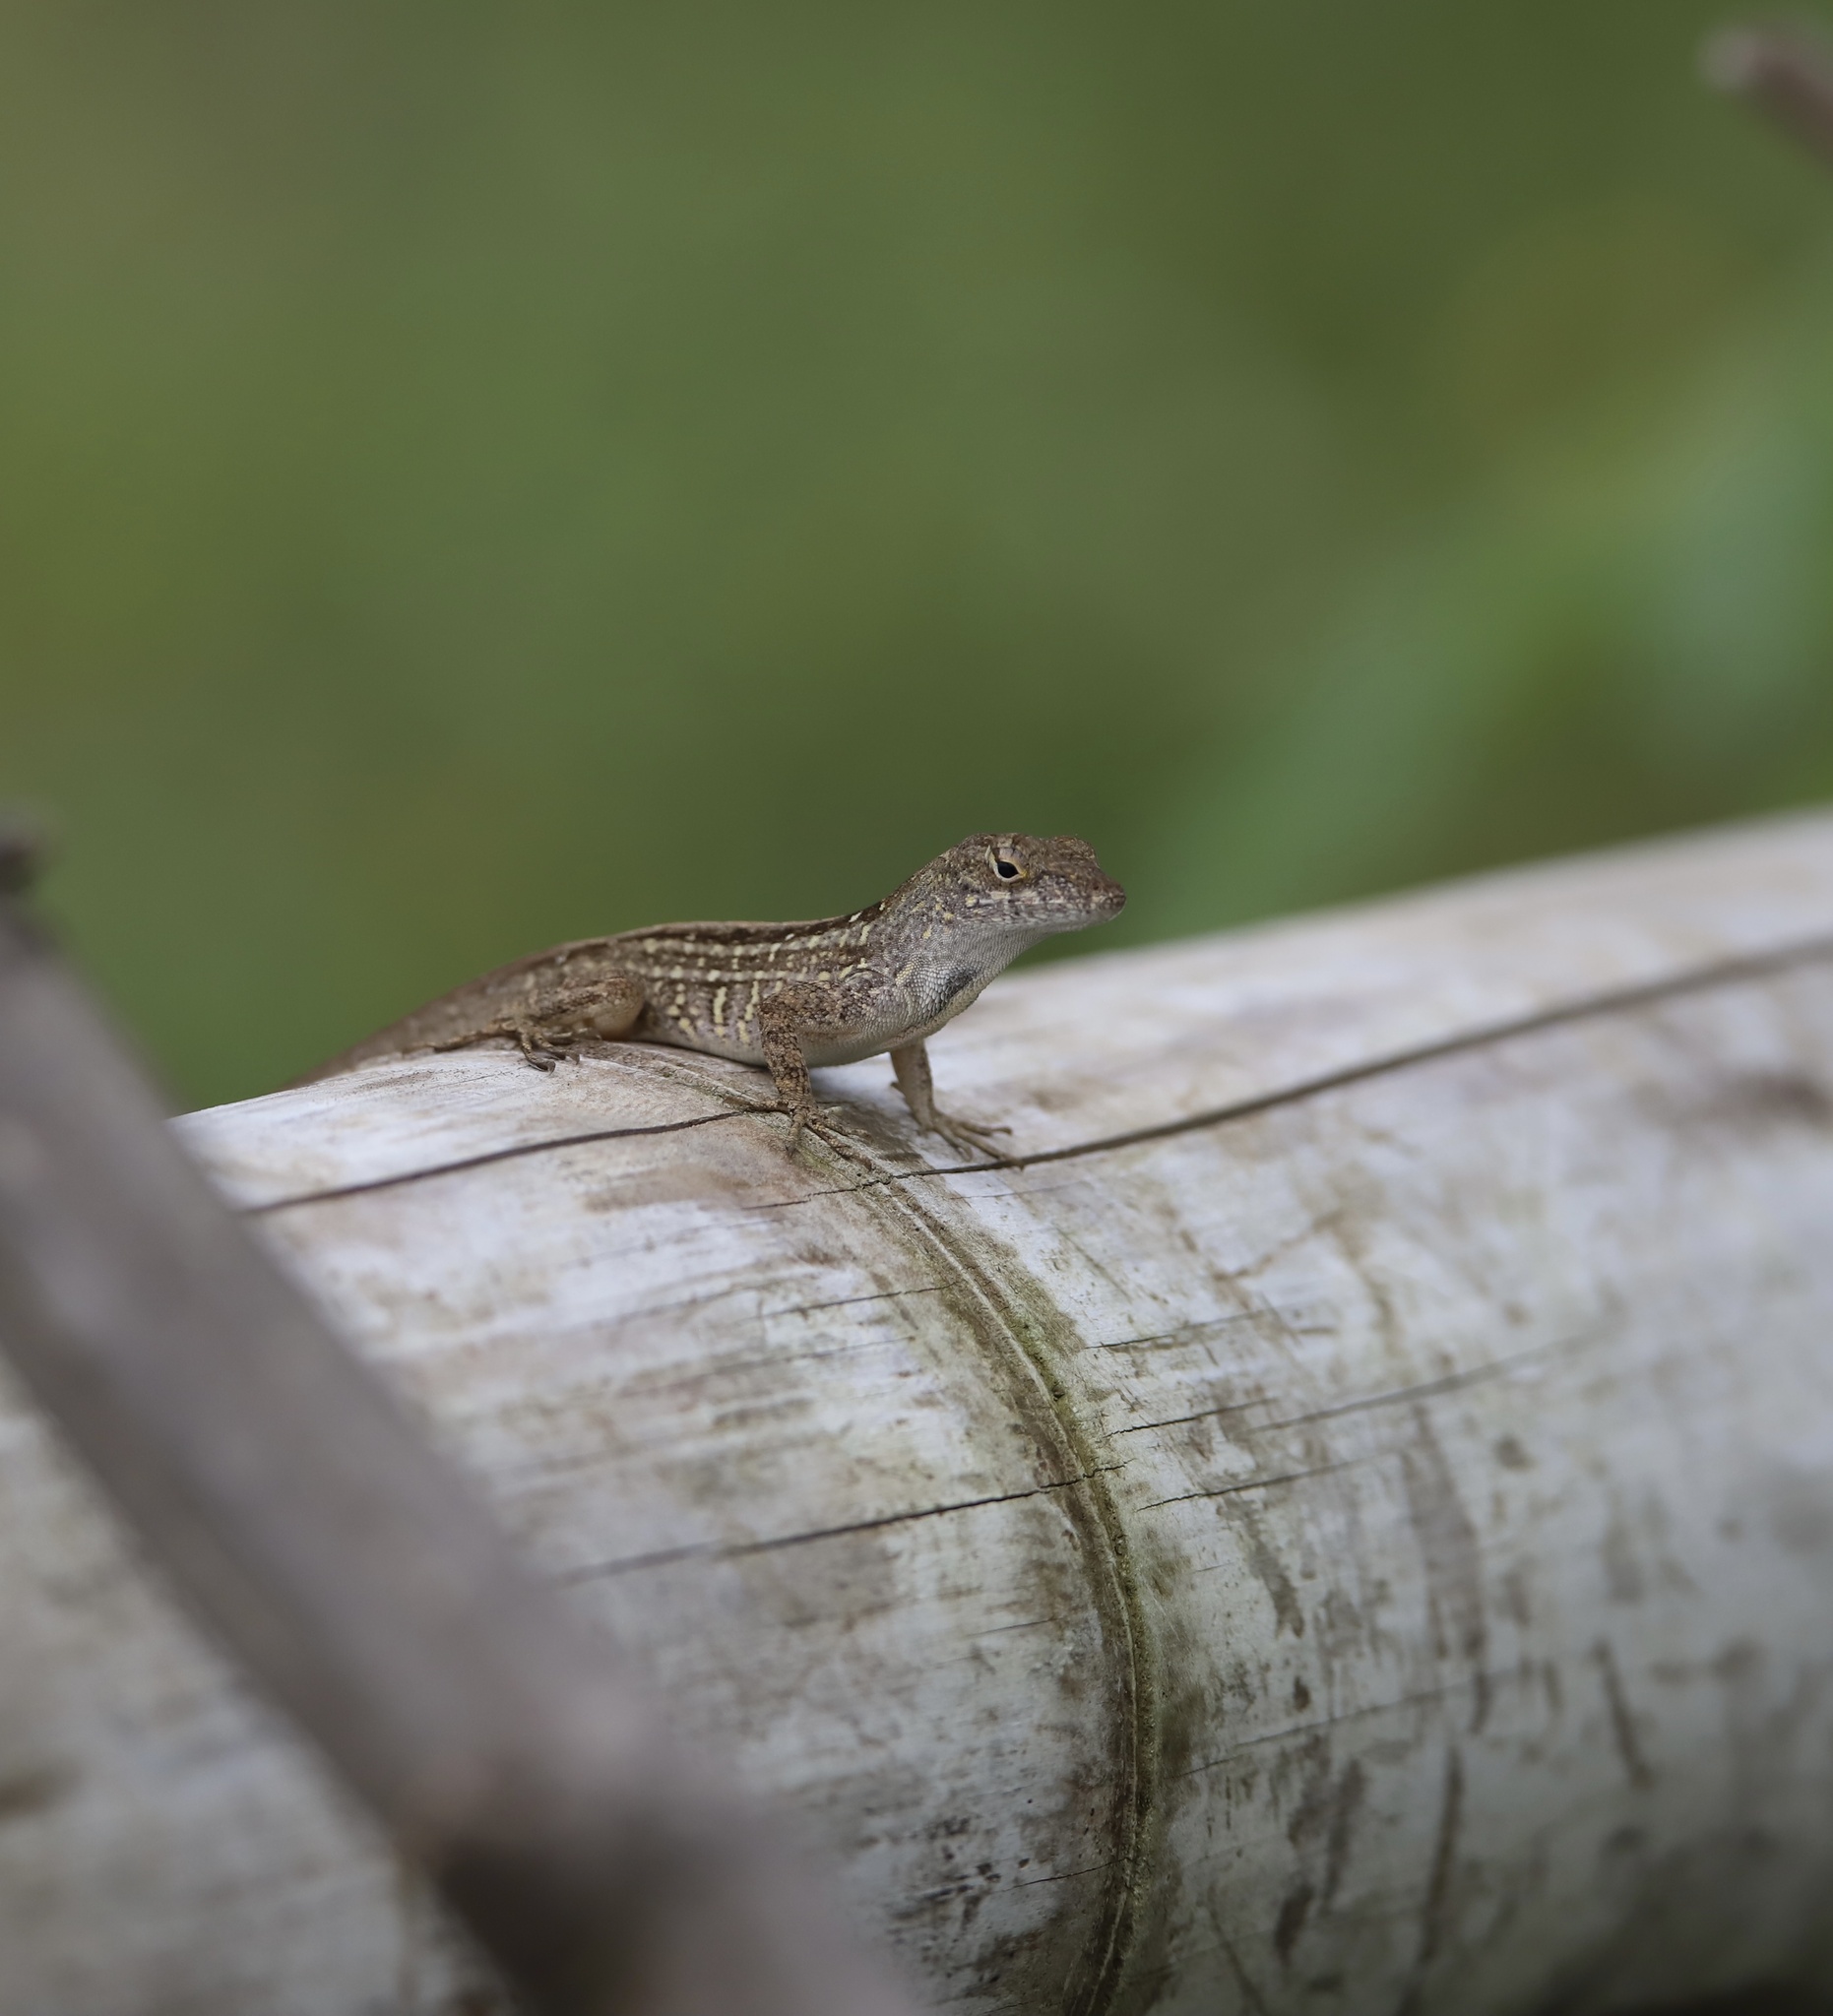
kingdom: Animalia
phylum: Chordata
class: Squamata
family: Dactyloidae
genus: Anolis
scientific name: Anolis sagrei
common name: Brown anole
